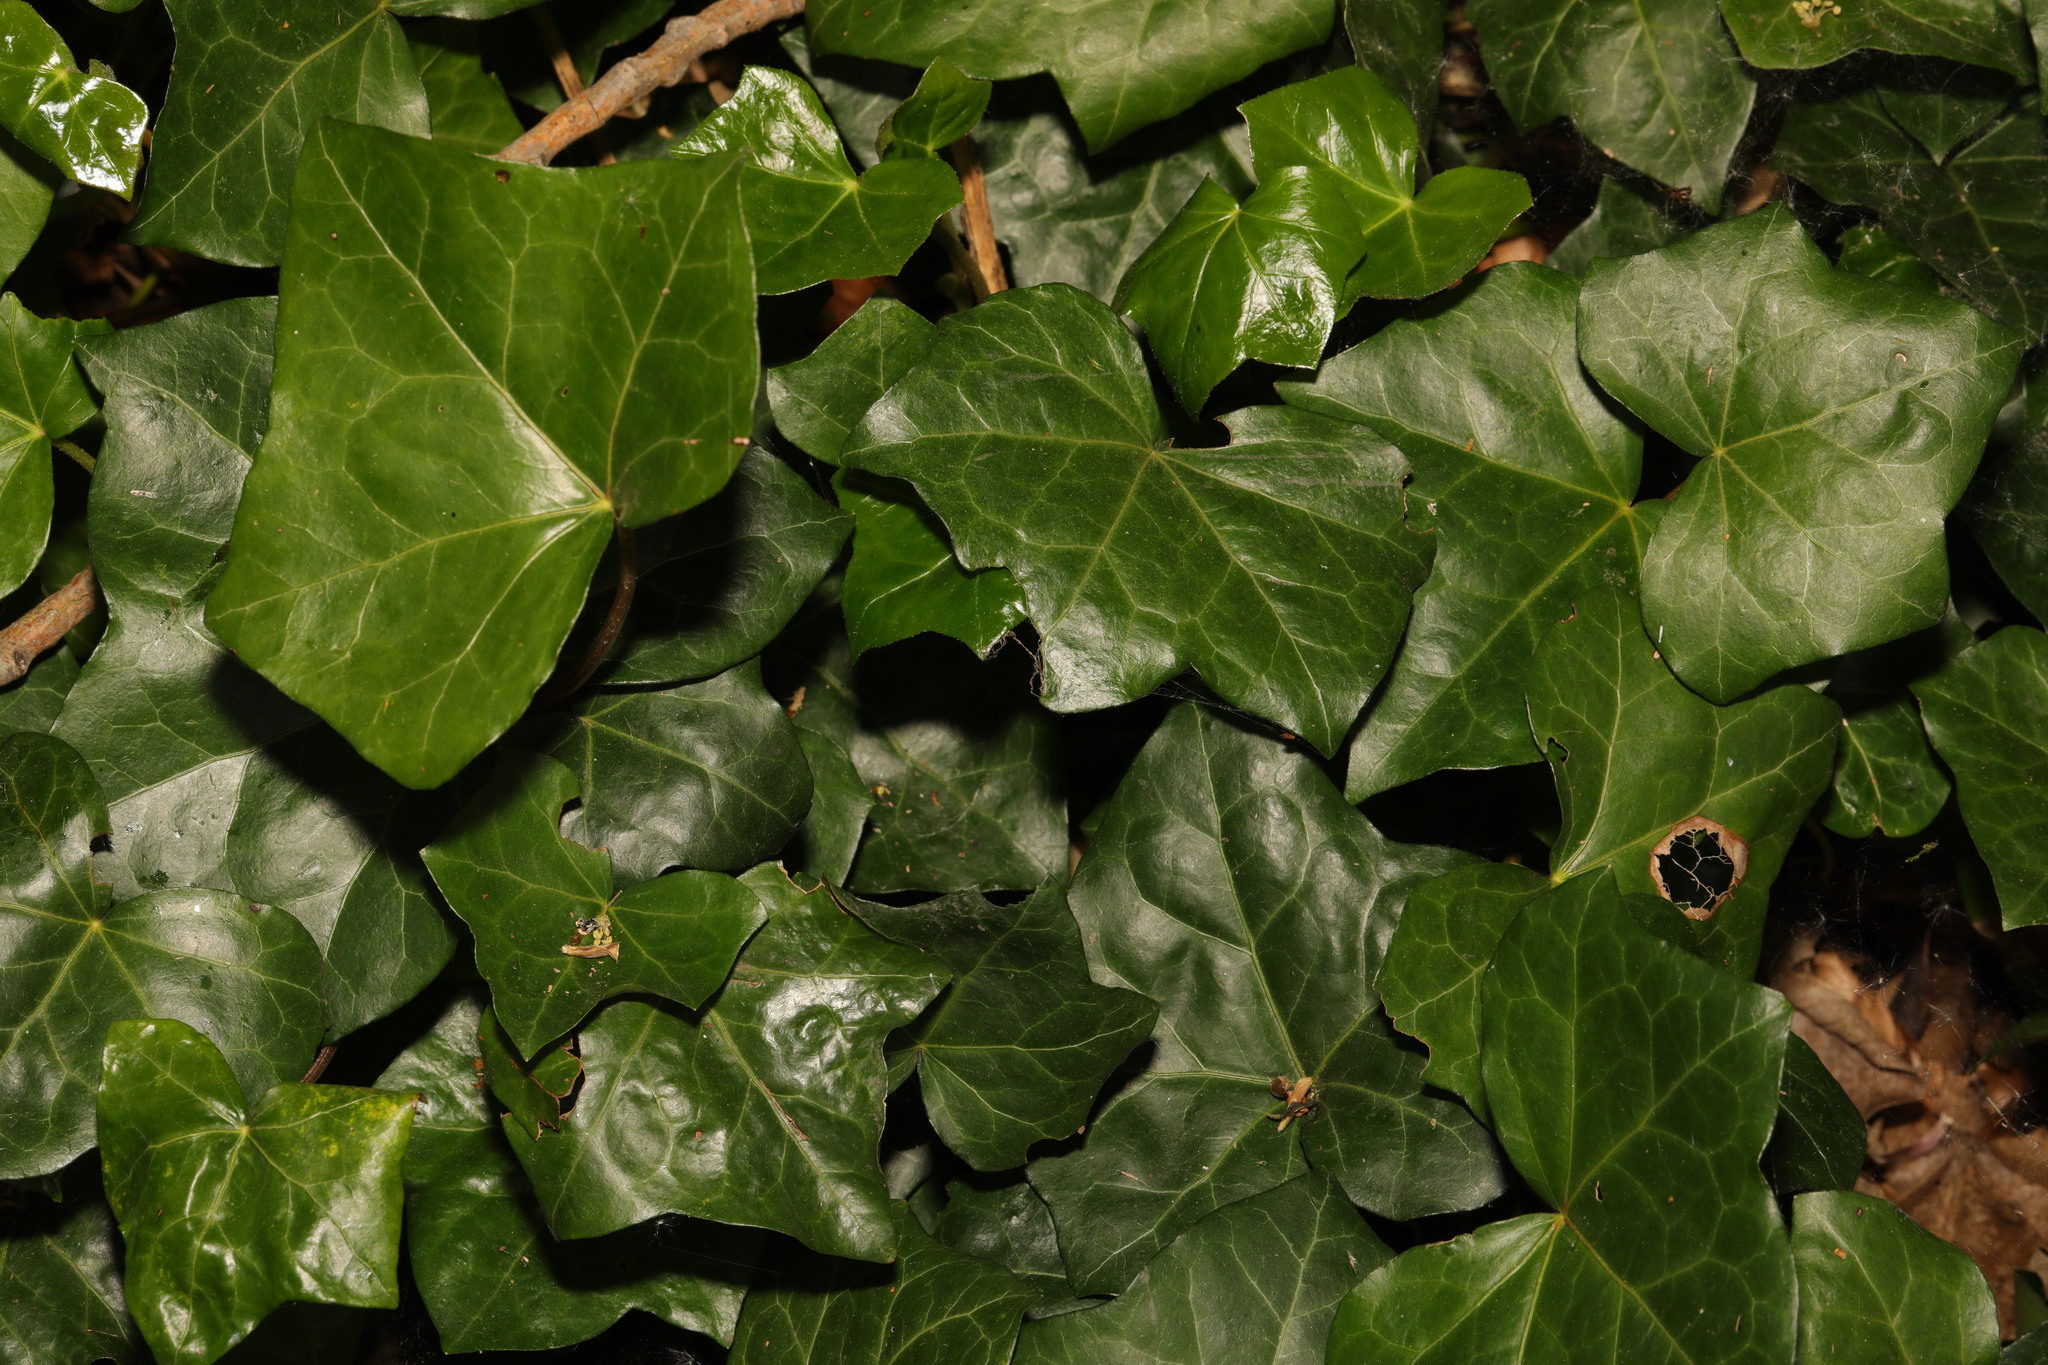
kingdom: Plantae
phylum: Tracheophyta
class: Magnoliopsida
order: Apiales
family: Araliaceae
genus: Hedera
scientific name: Hedera helix
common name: Ivy
